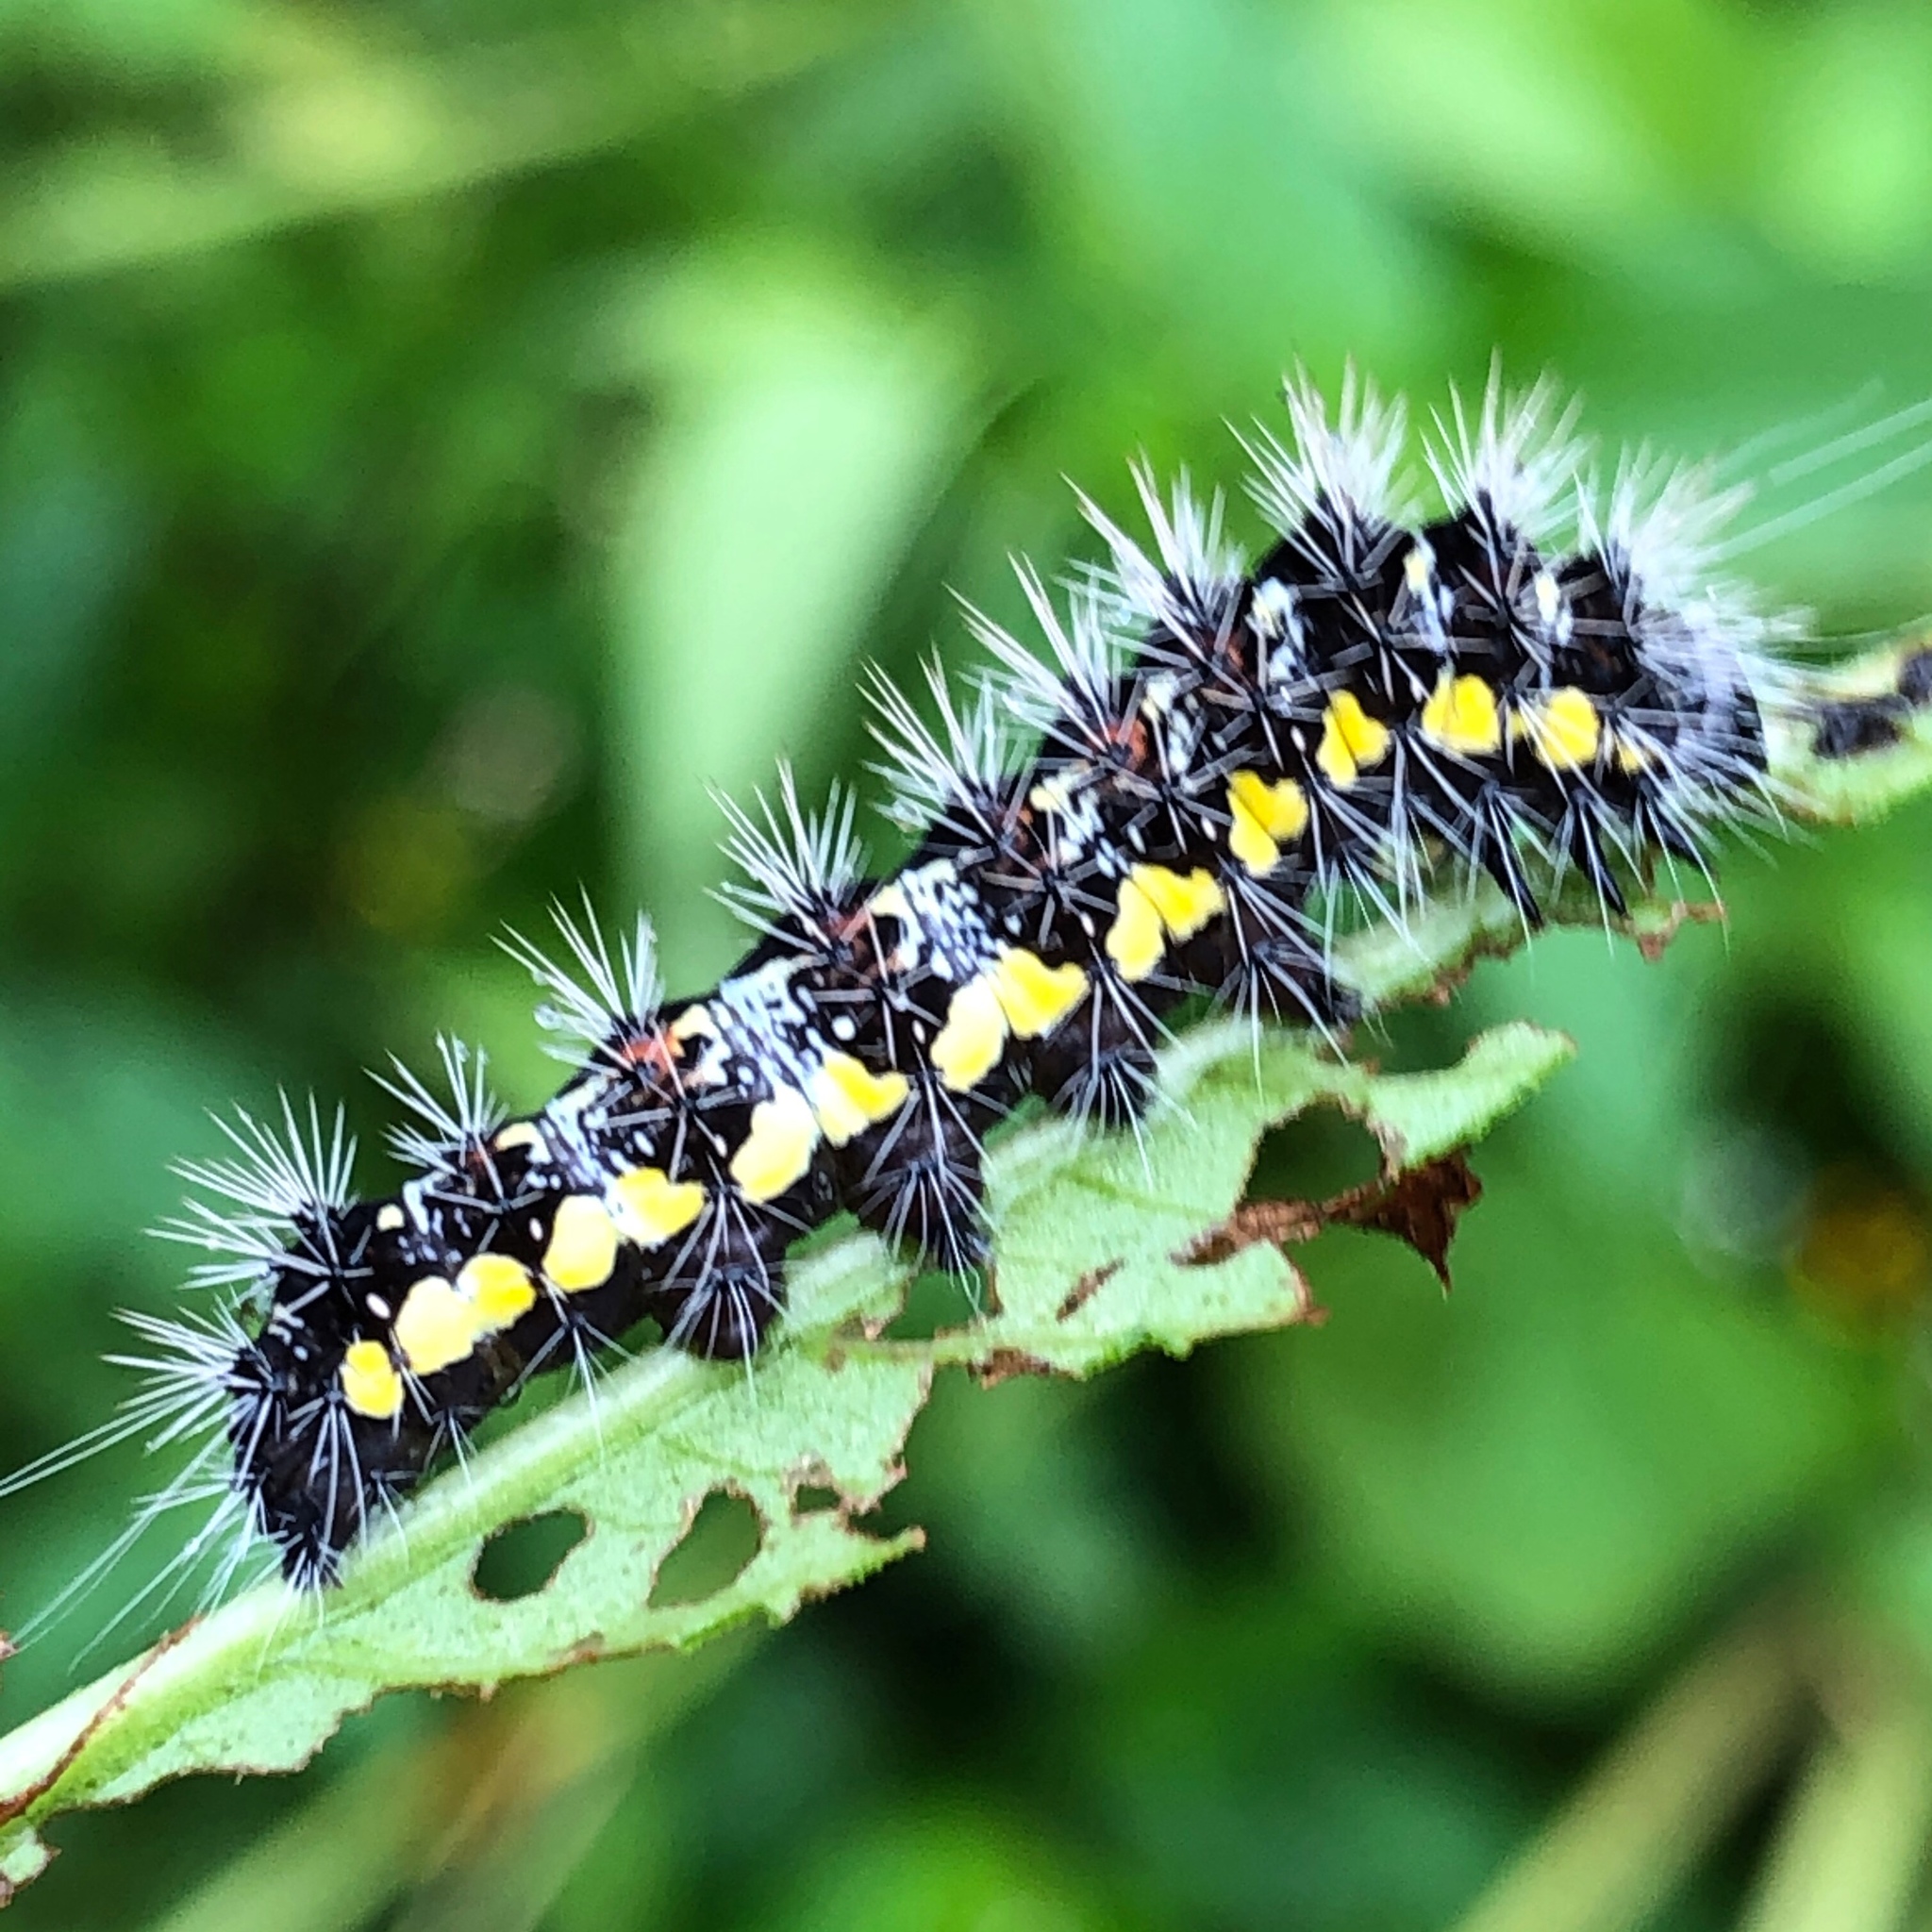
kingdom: Animalia
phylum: Arthropoda
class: Insecta
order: Lepidoptera
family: Noctuidae
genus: Acronicta
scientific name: Acronicta oblinita
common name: Smeared dagger
